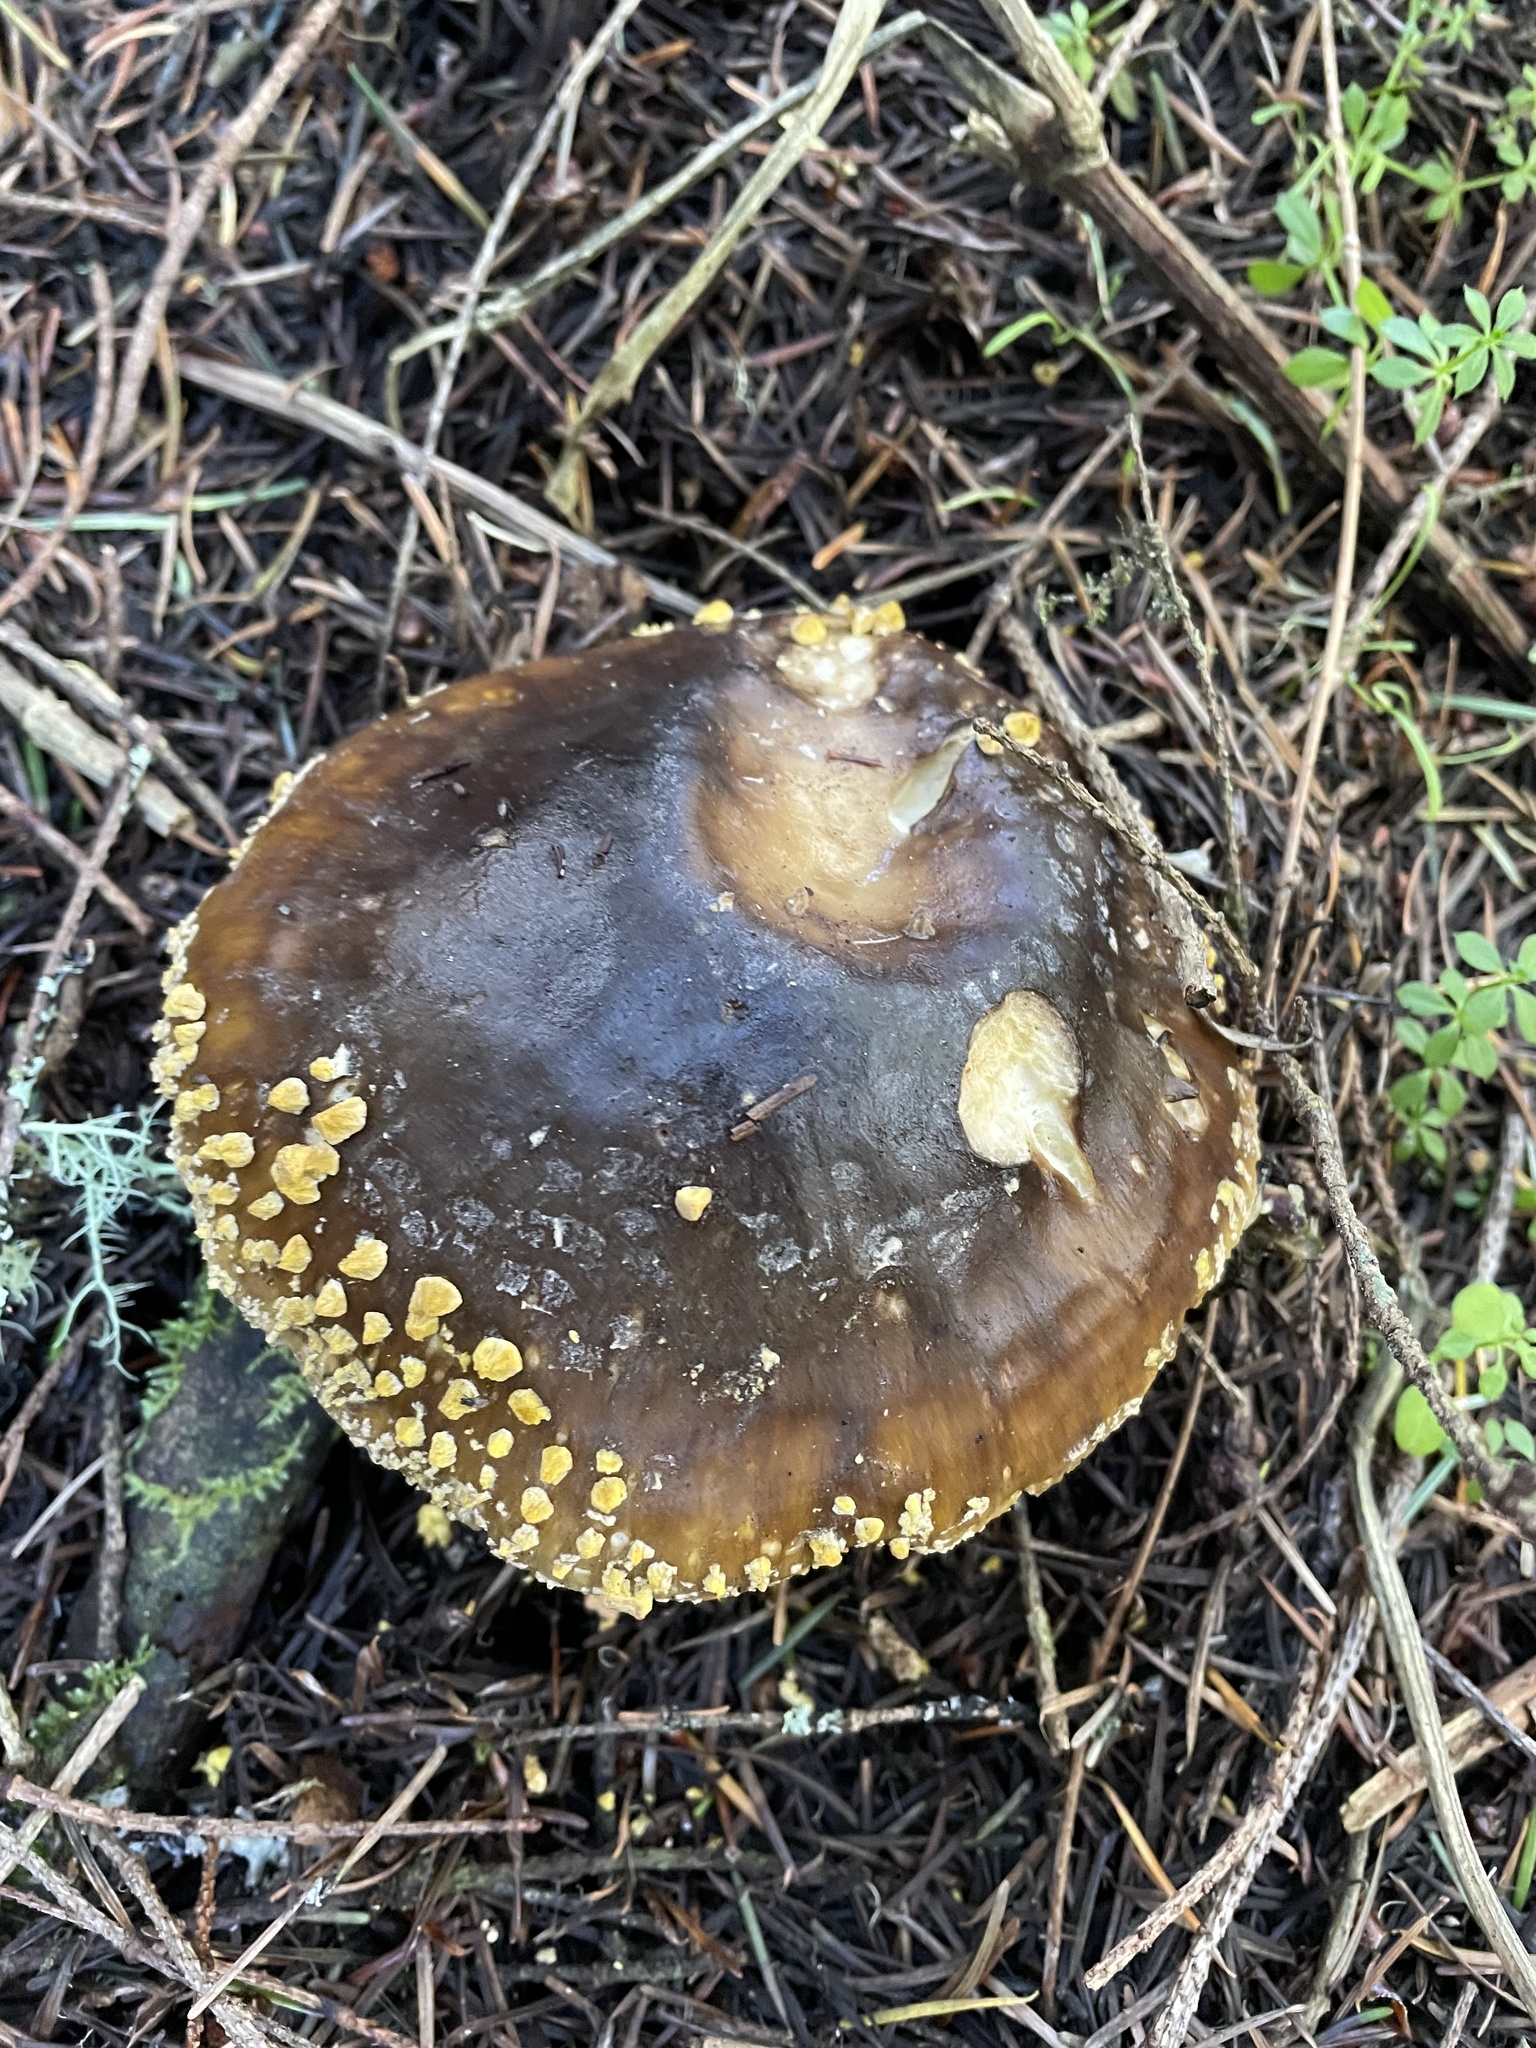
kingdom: Fungi
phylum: Basidiomycota
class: Agaricomycetes
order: Agaricales
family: Amanitaceae
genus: Amanita
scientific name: Amanita augusta
